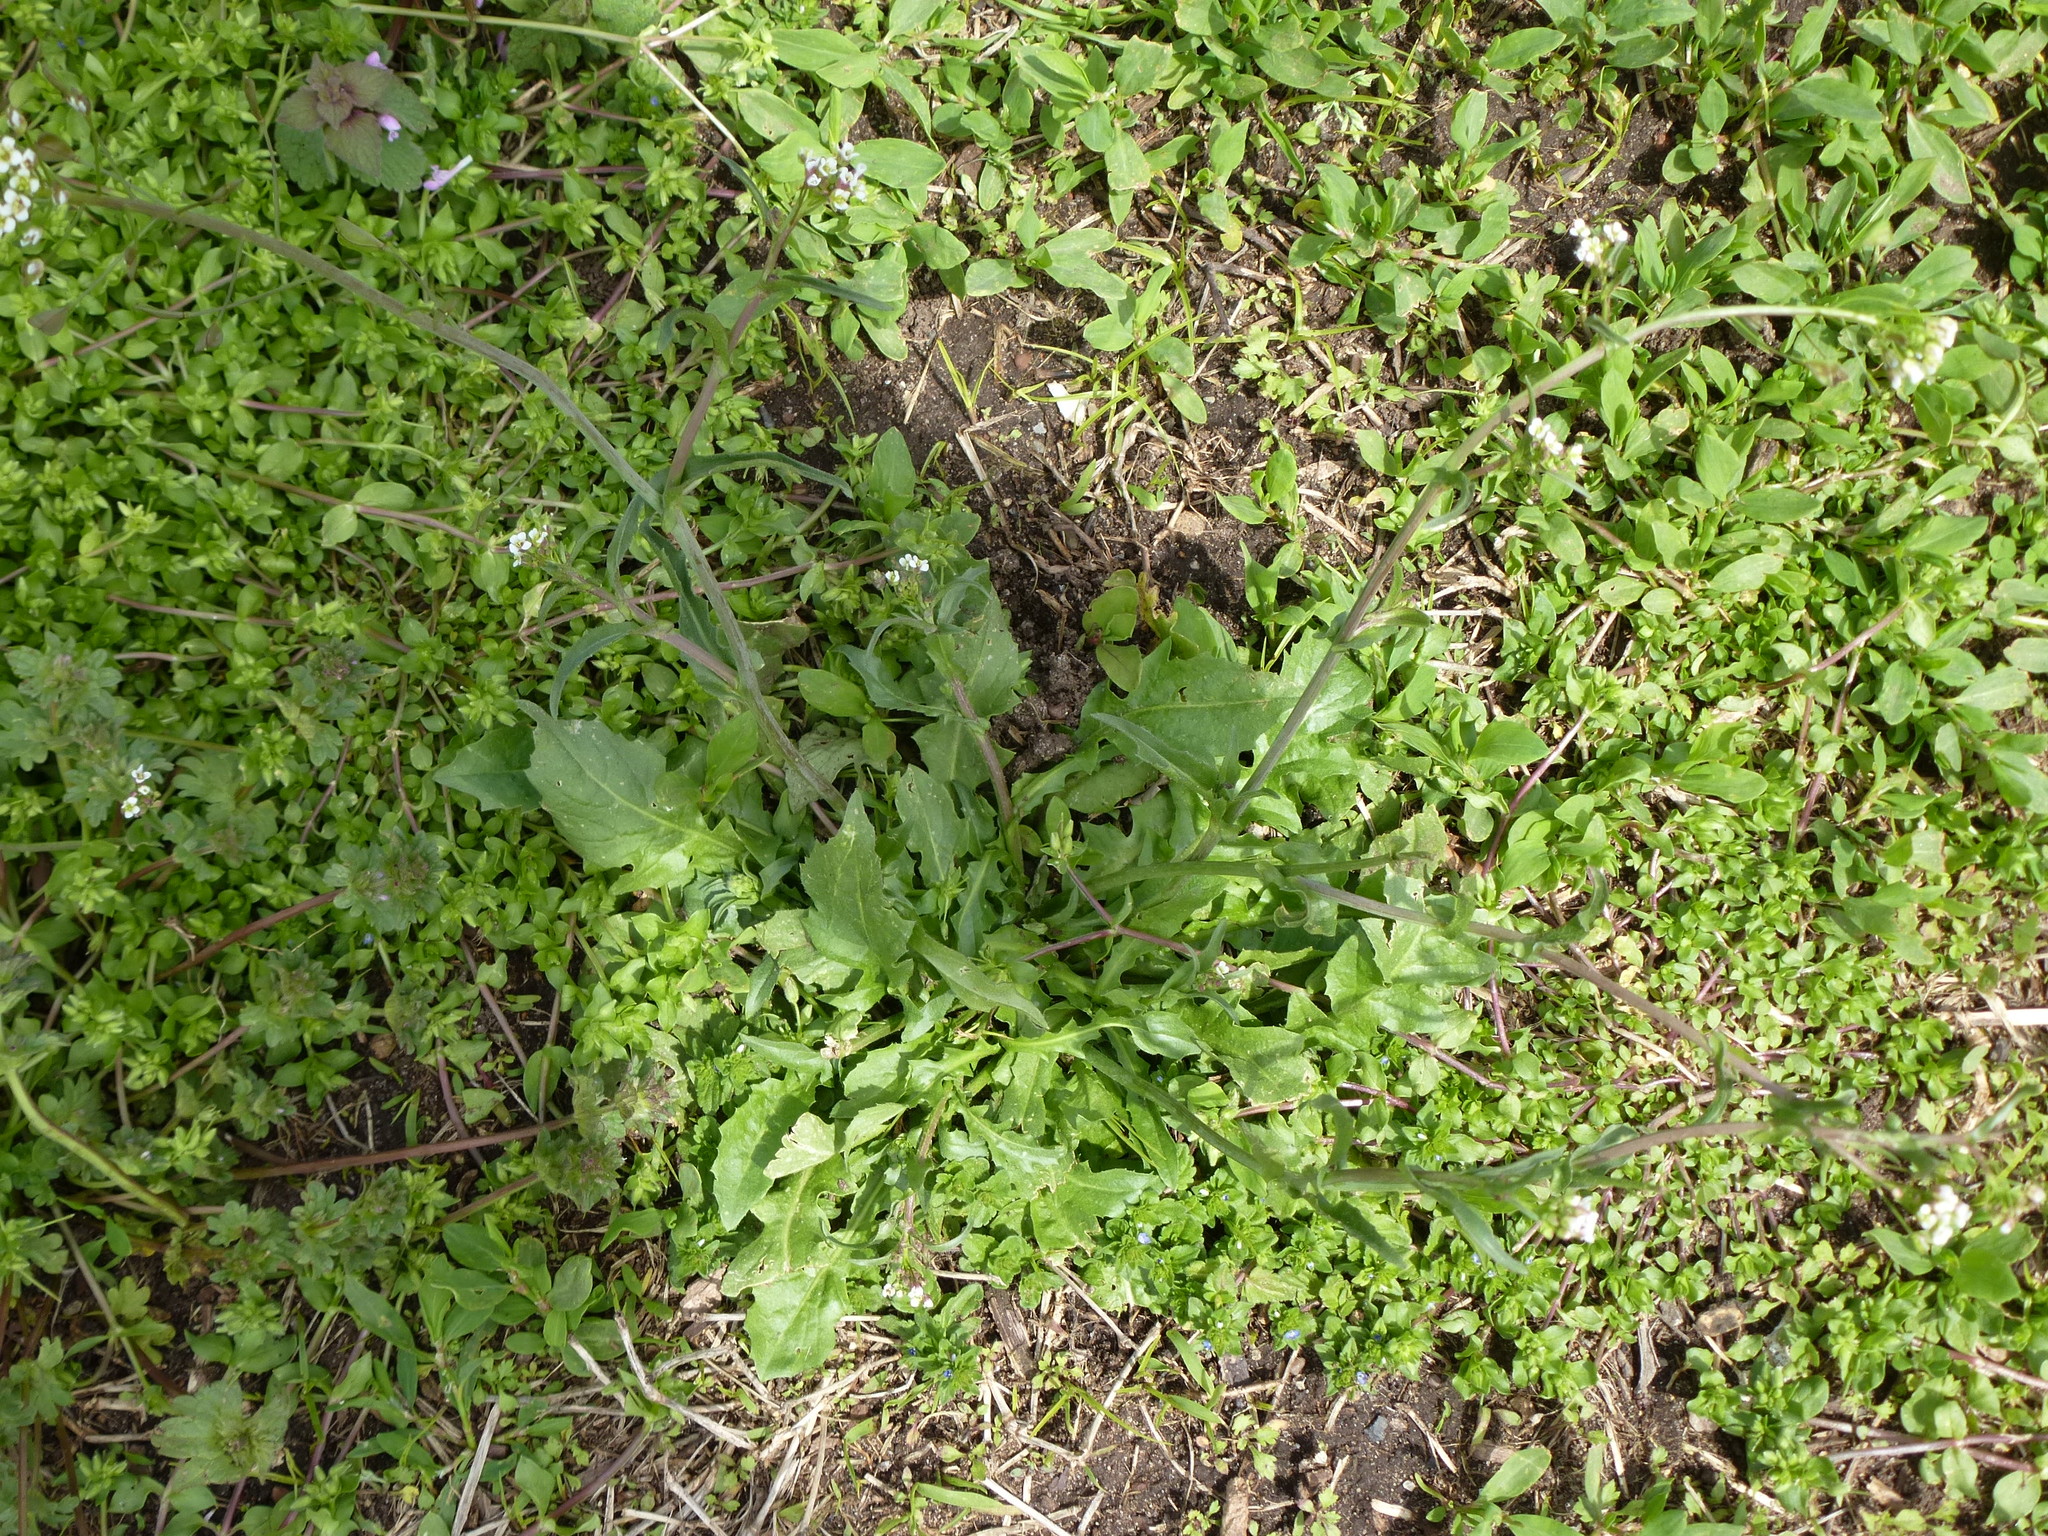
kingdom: Plantae
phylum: Tracheophyta
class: Magnoliopsida
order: Brassicales
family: Brassicaceae
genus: Capsella
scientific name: Capsella bursa-pastoris
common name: Shepherd's purse
